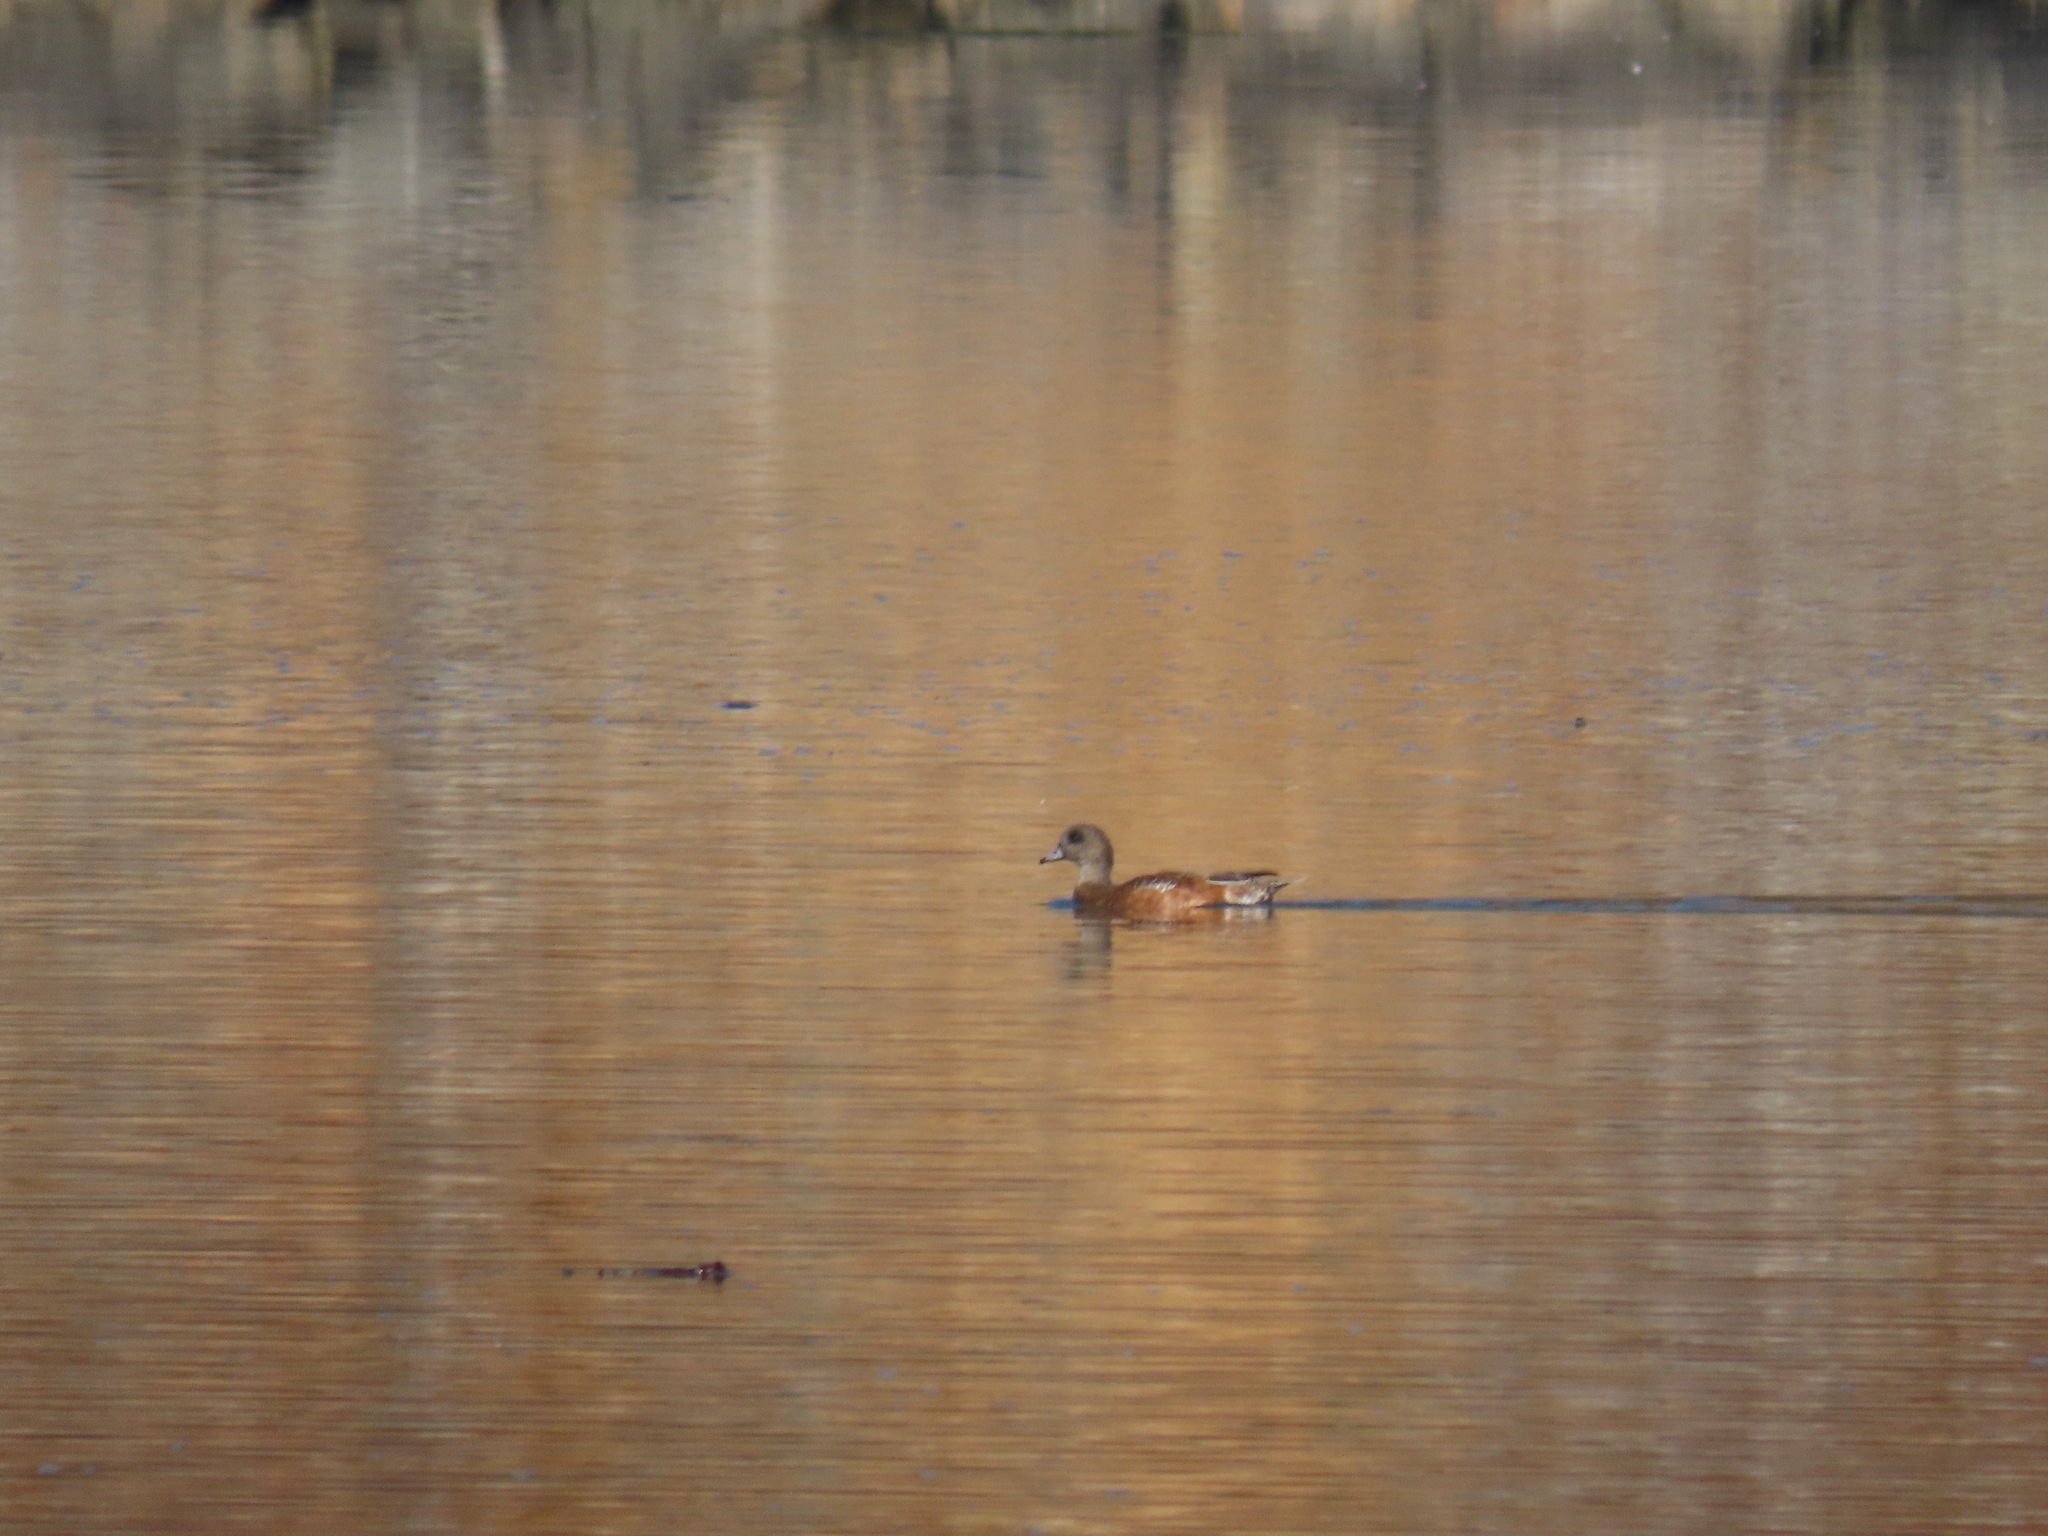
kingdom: Animalia
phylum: Chordata
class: Aves
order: Anseriformes
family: Anatidae
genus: Mareca
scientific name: Mareca americana
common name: American wigeon
